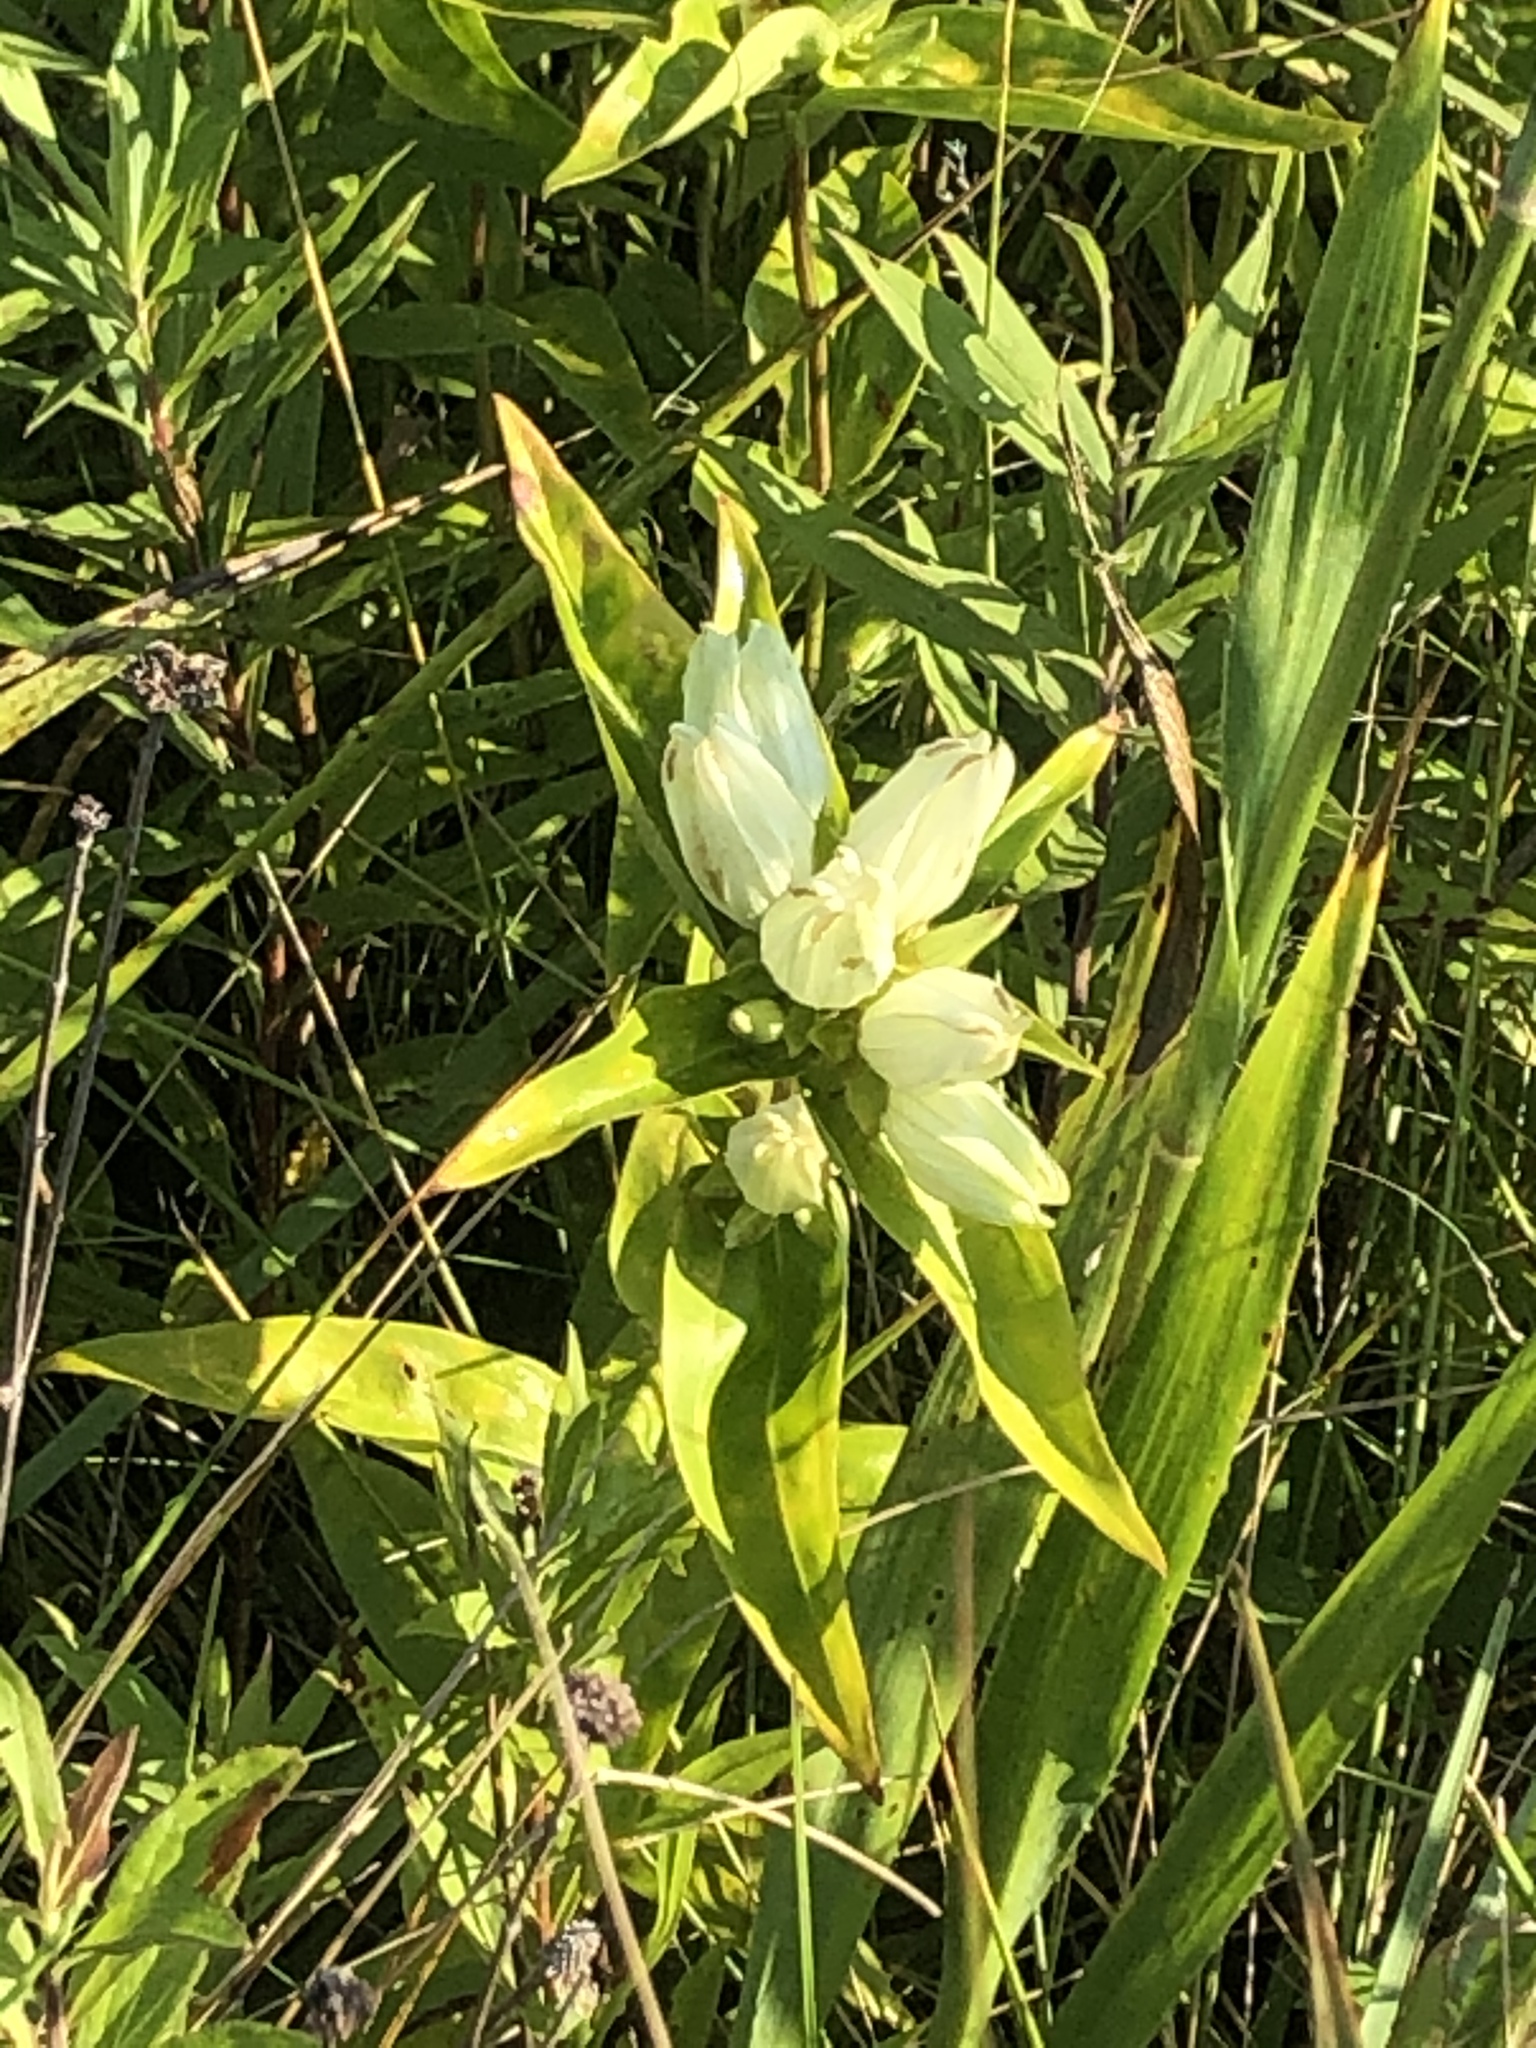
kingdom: Plantae
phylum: Tracheophyta
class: Magnoliopsida
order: Gentianales
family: Gentianaceae
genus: Gentiana
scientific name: Gentiana alba
